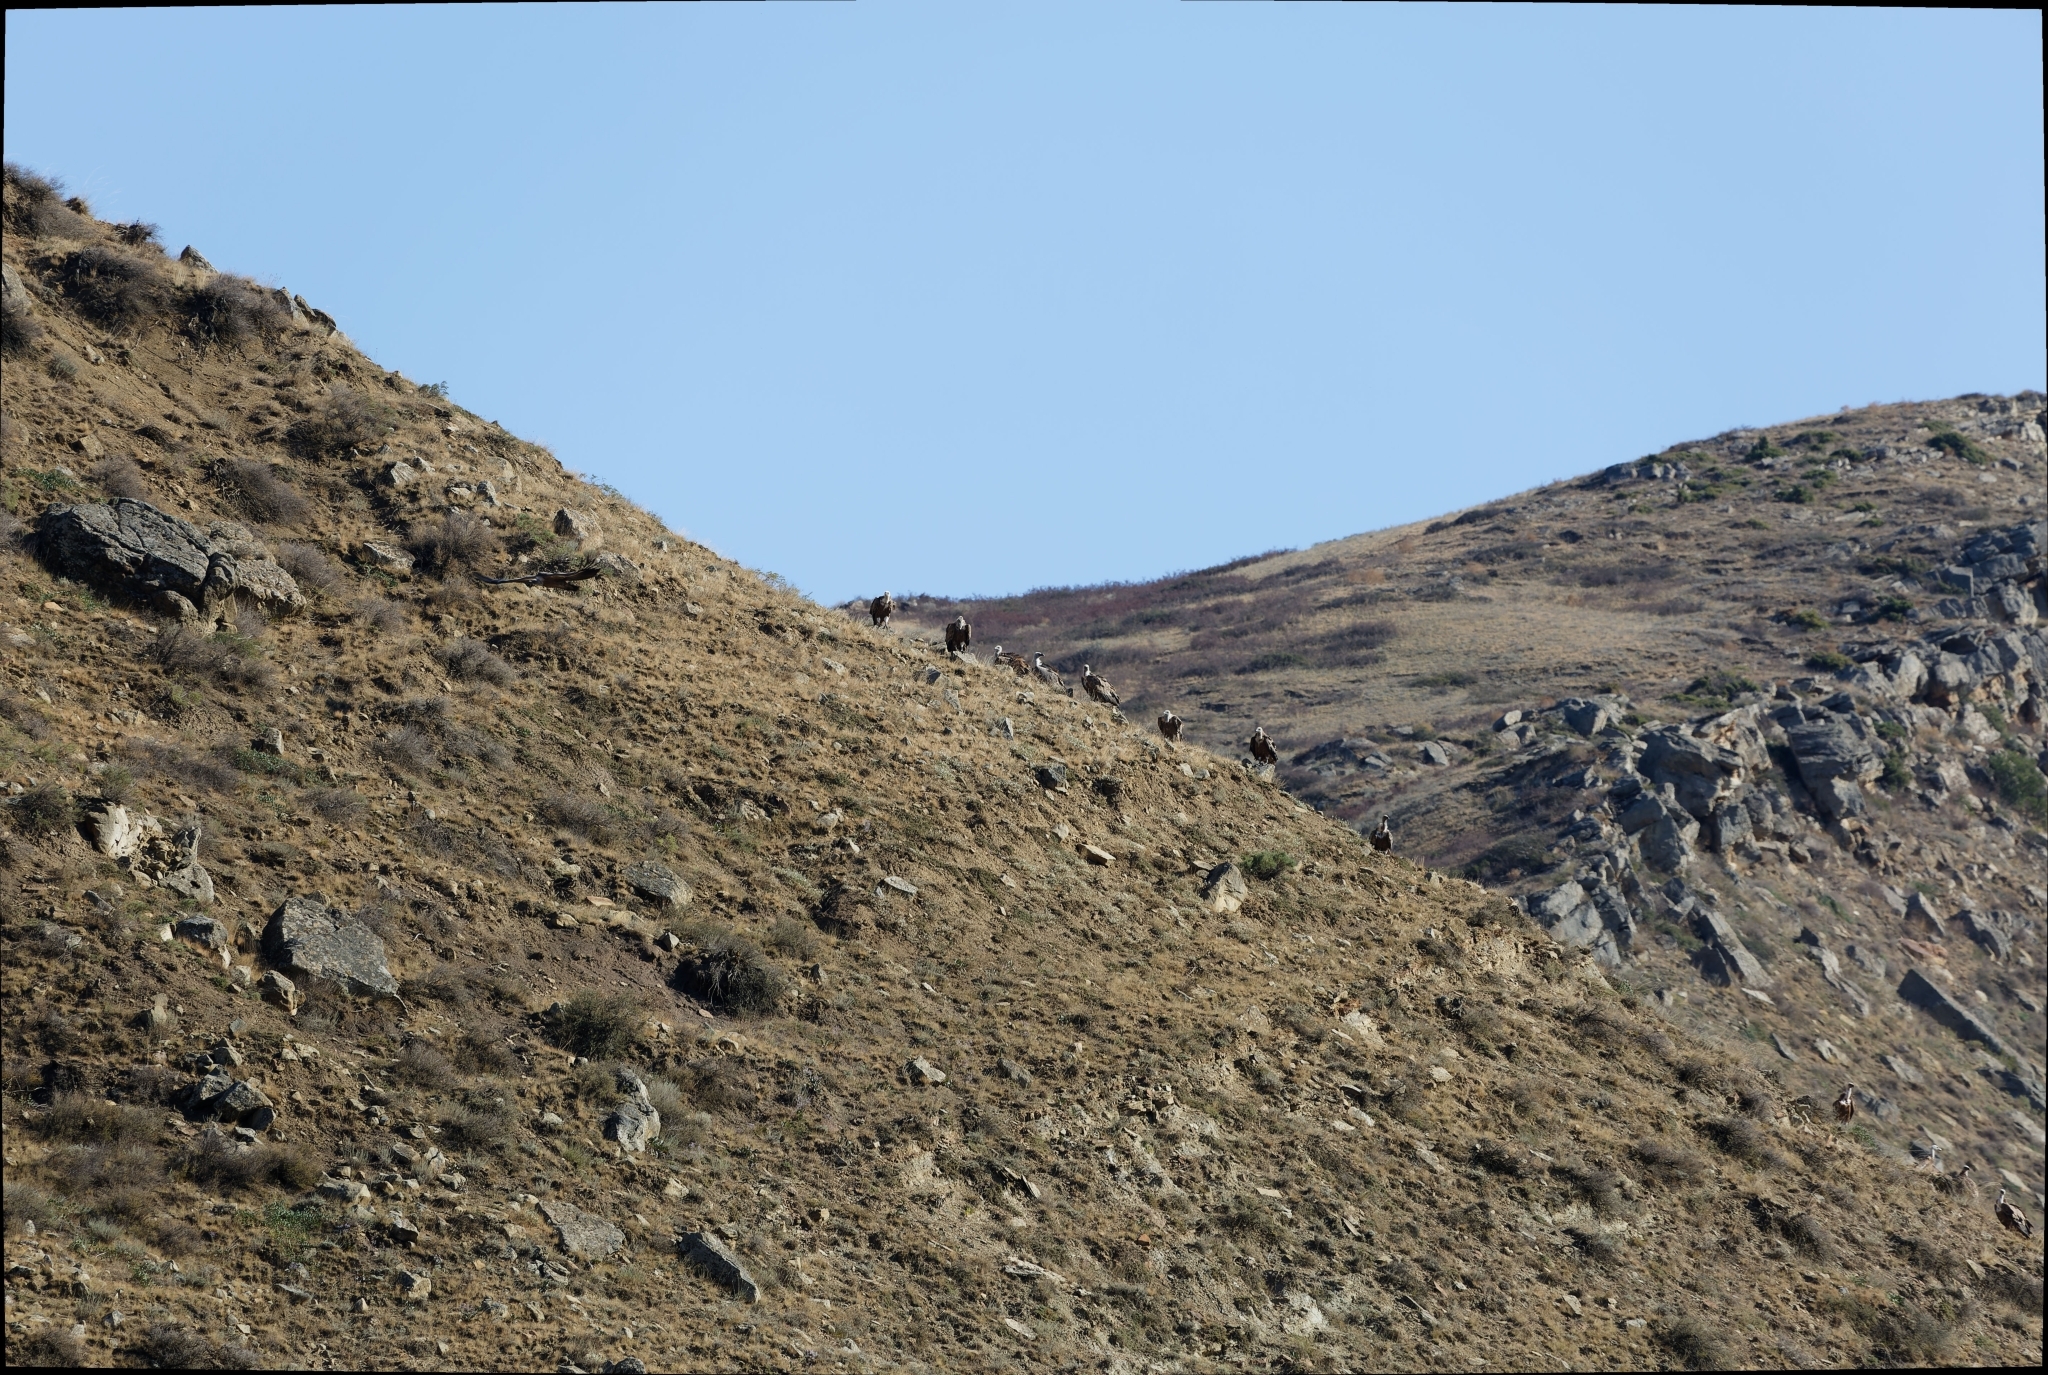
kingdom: Animalia
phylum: Chordata
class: Aves
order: Accipitriformes
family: Accipitridae
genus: Gyps
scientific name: Gyps fulvus
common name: Griffon vulture
